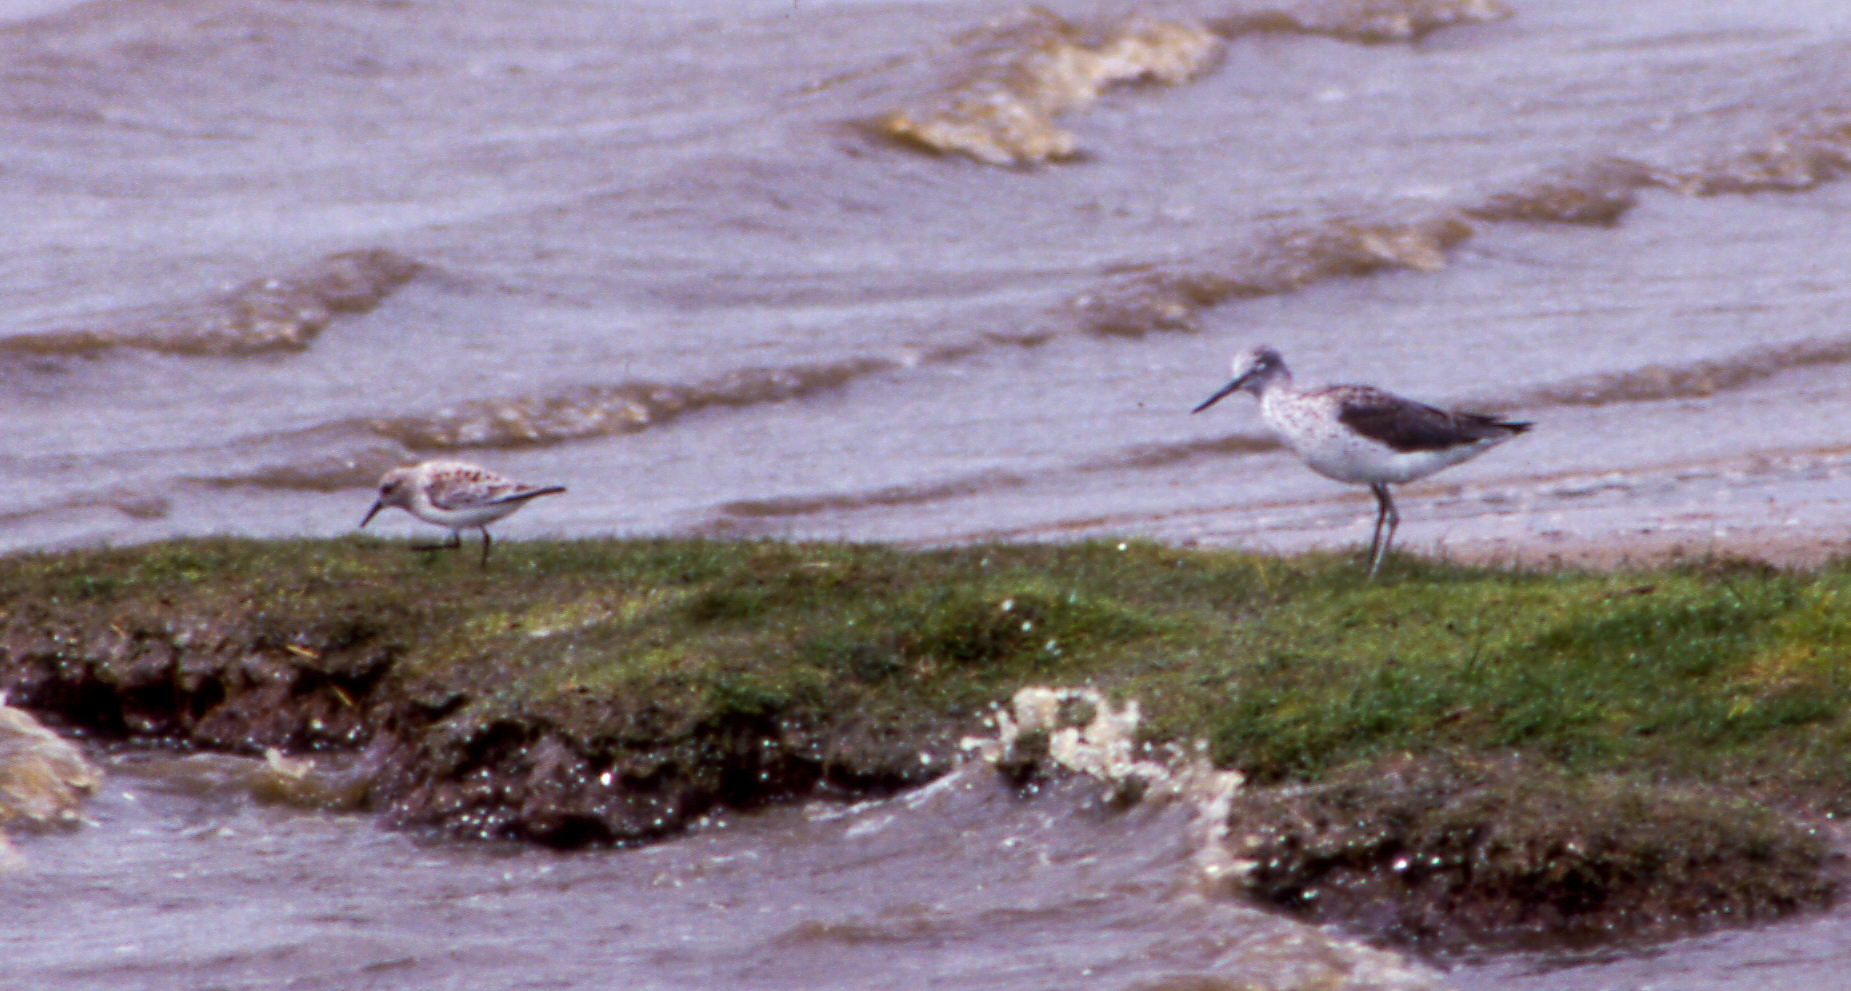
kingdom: Animalia
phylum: Chordata
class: Aves
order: Charadriiformes
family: Scolopacidae
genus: Calidris
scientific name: Calidris alba
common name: Sanderling
